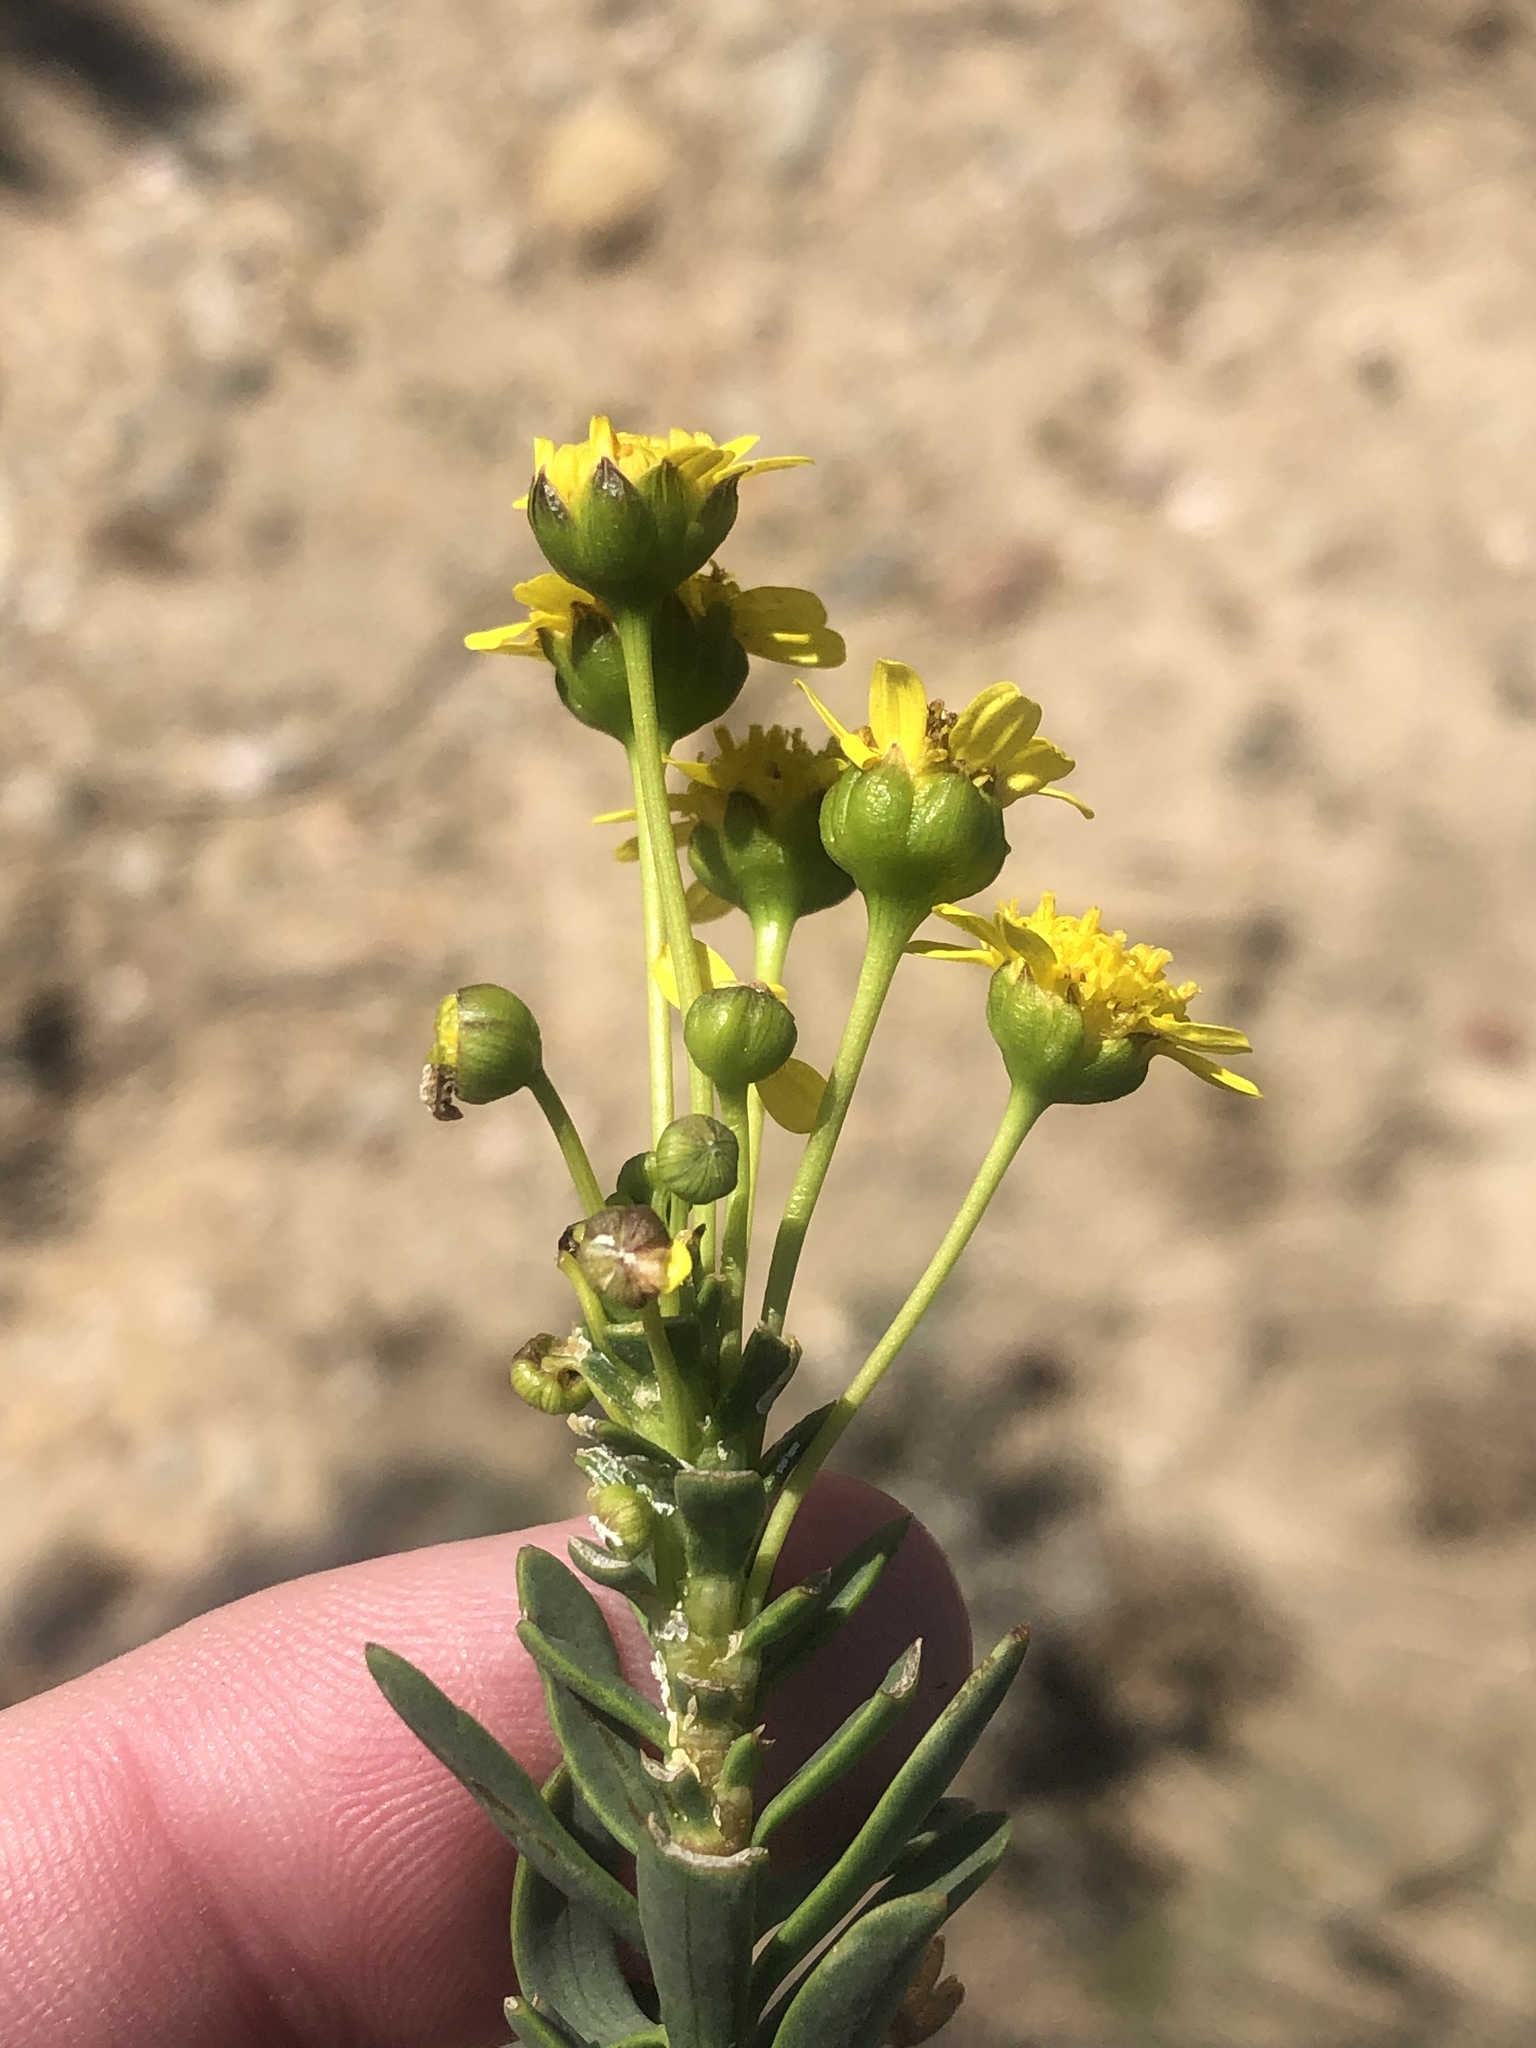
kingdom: Plantae
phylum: Tracheophyta
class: Magnoliopsida
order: Asterales
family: Asteraceae
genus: Euryops
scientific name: Euryops lateriflorus
